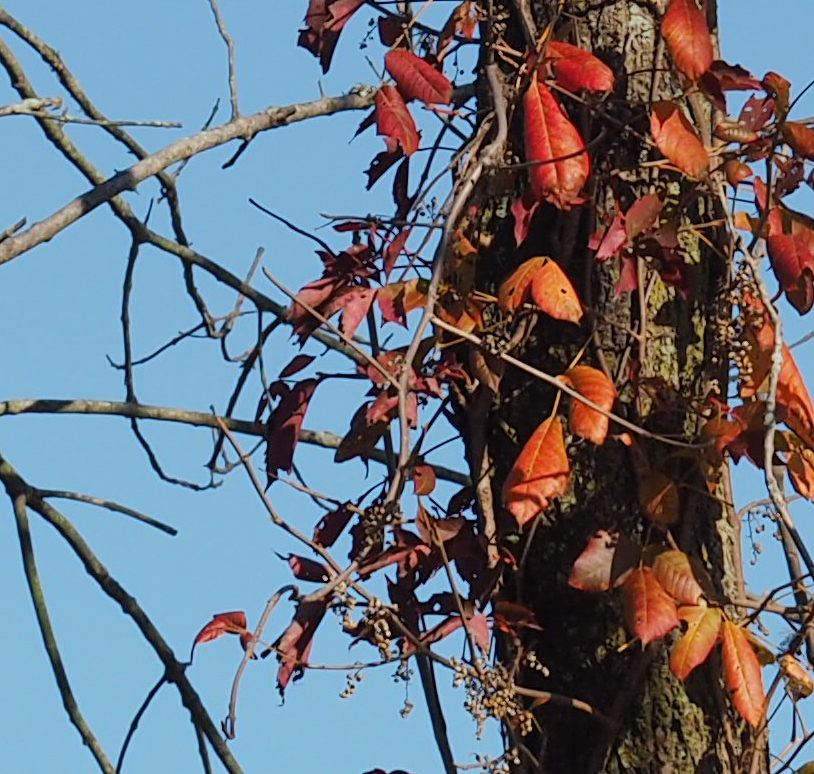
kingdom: Plantae
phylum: Tracheophyta
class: Magnoliopsida
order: Sapindales
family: Anacardiaceae
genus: Toxicodendron
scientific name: Toxicodendron radicans
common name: Poison ivy
